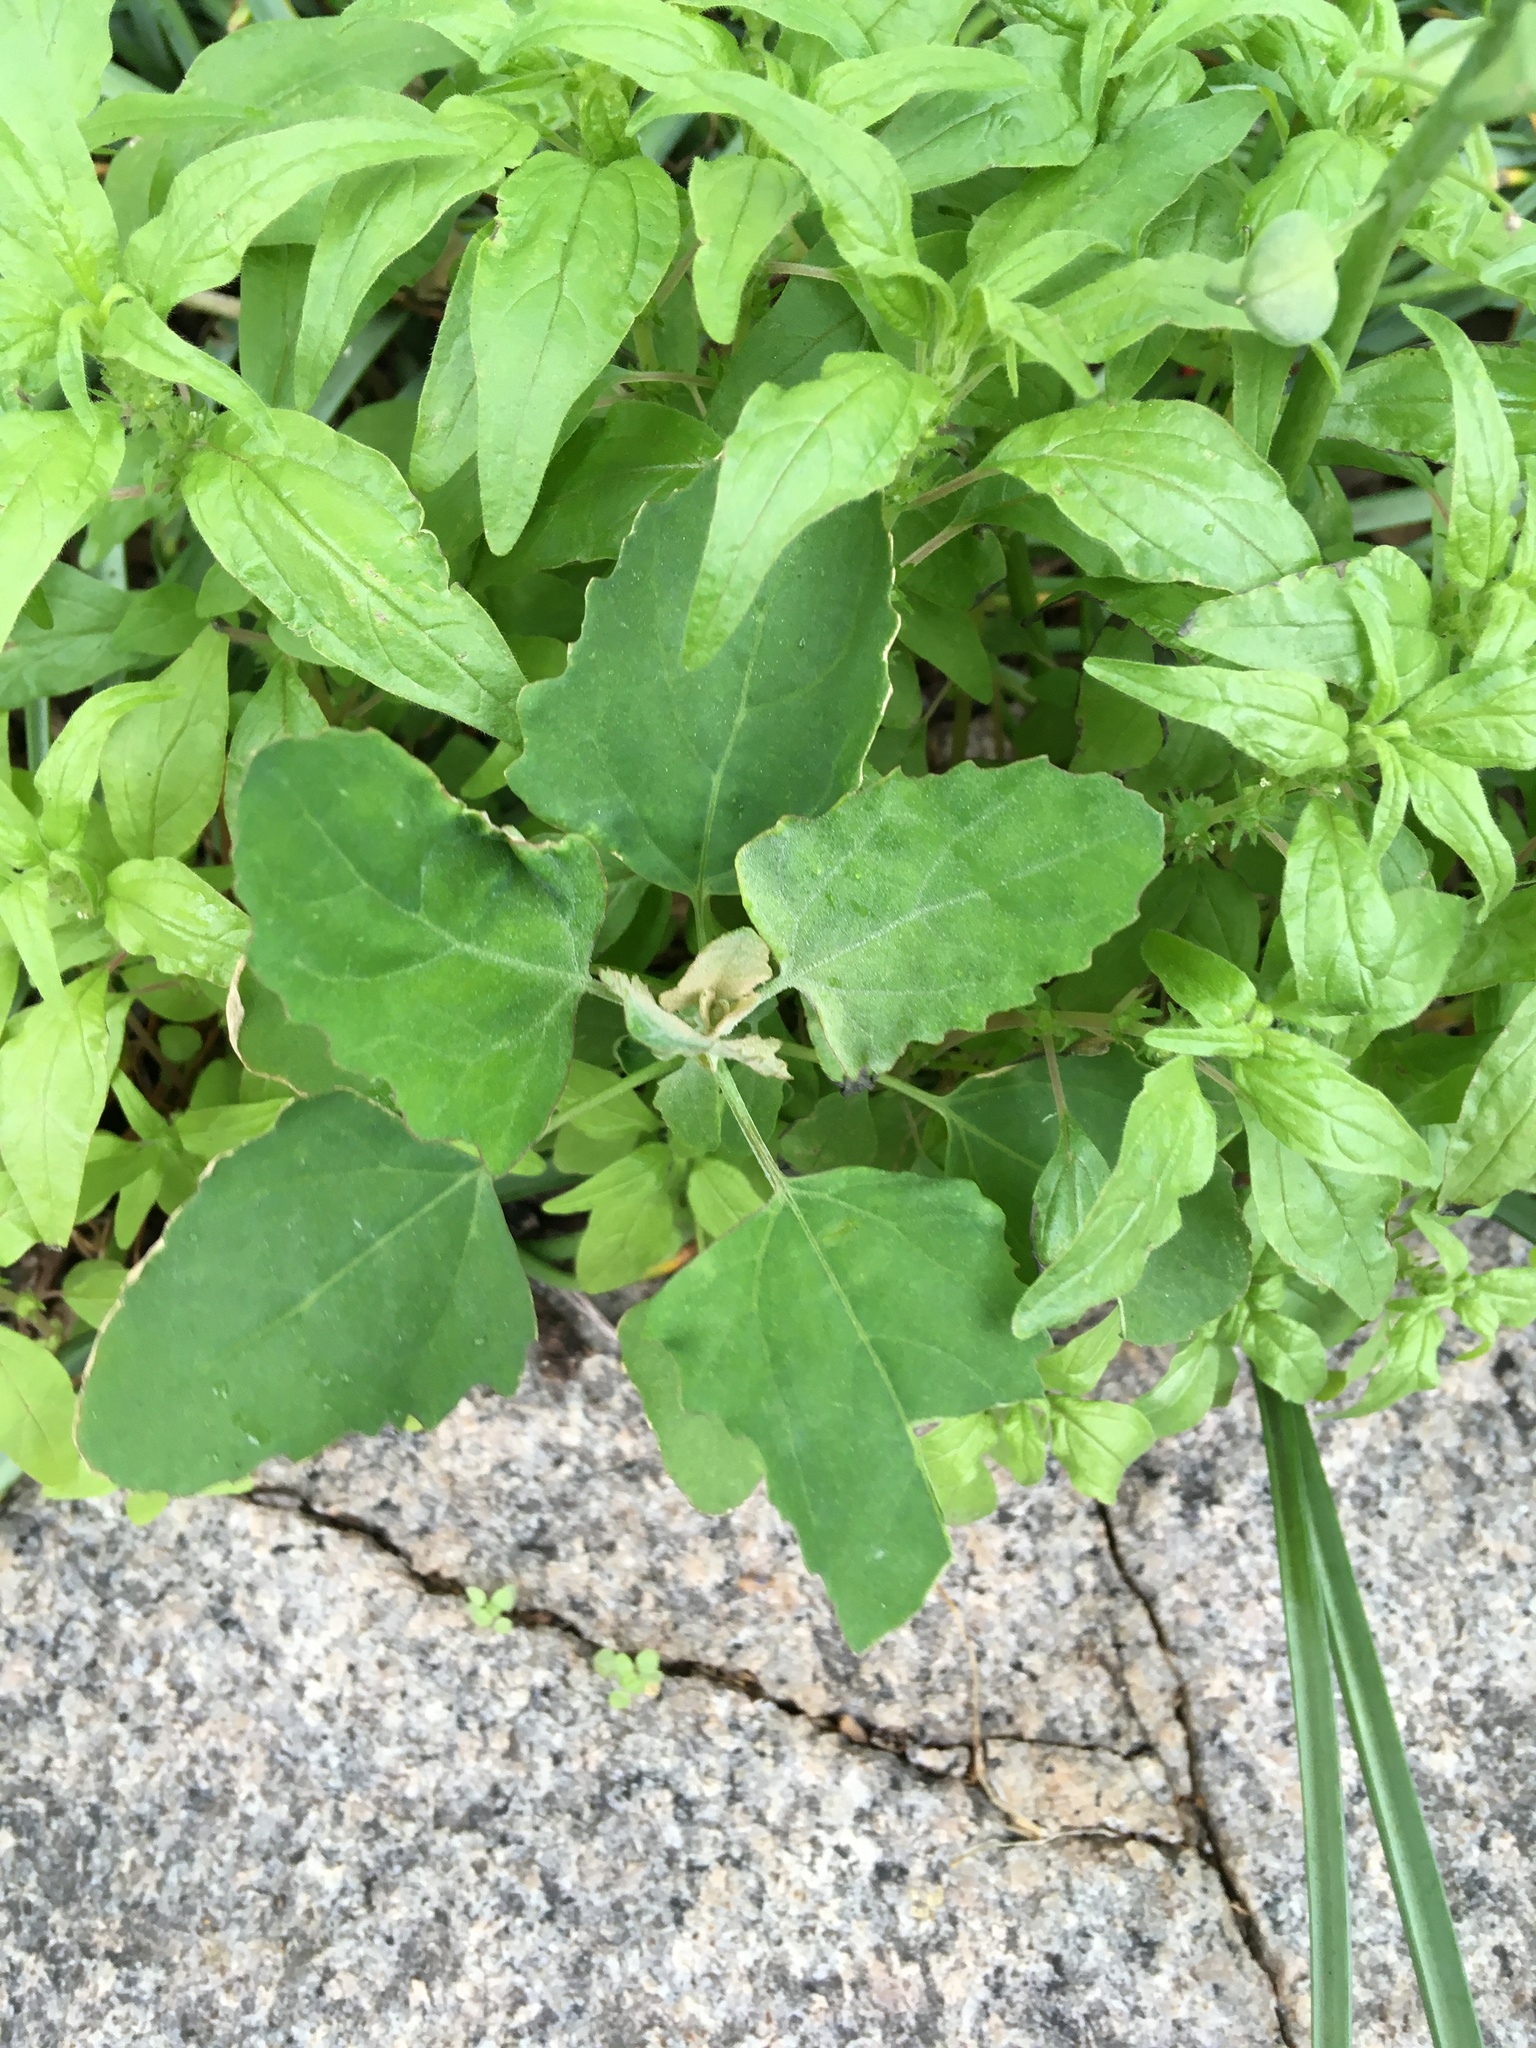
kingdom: Plantae
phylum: Tracheophyta
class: Magnoliopsida
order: Caryophyllales
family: Amaranthaceae
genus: Chenopodium
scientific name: Chenopodium album
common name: Fat-hen
